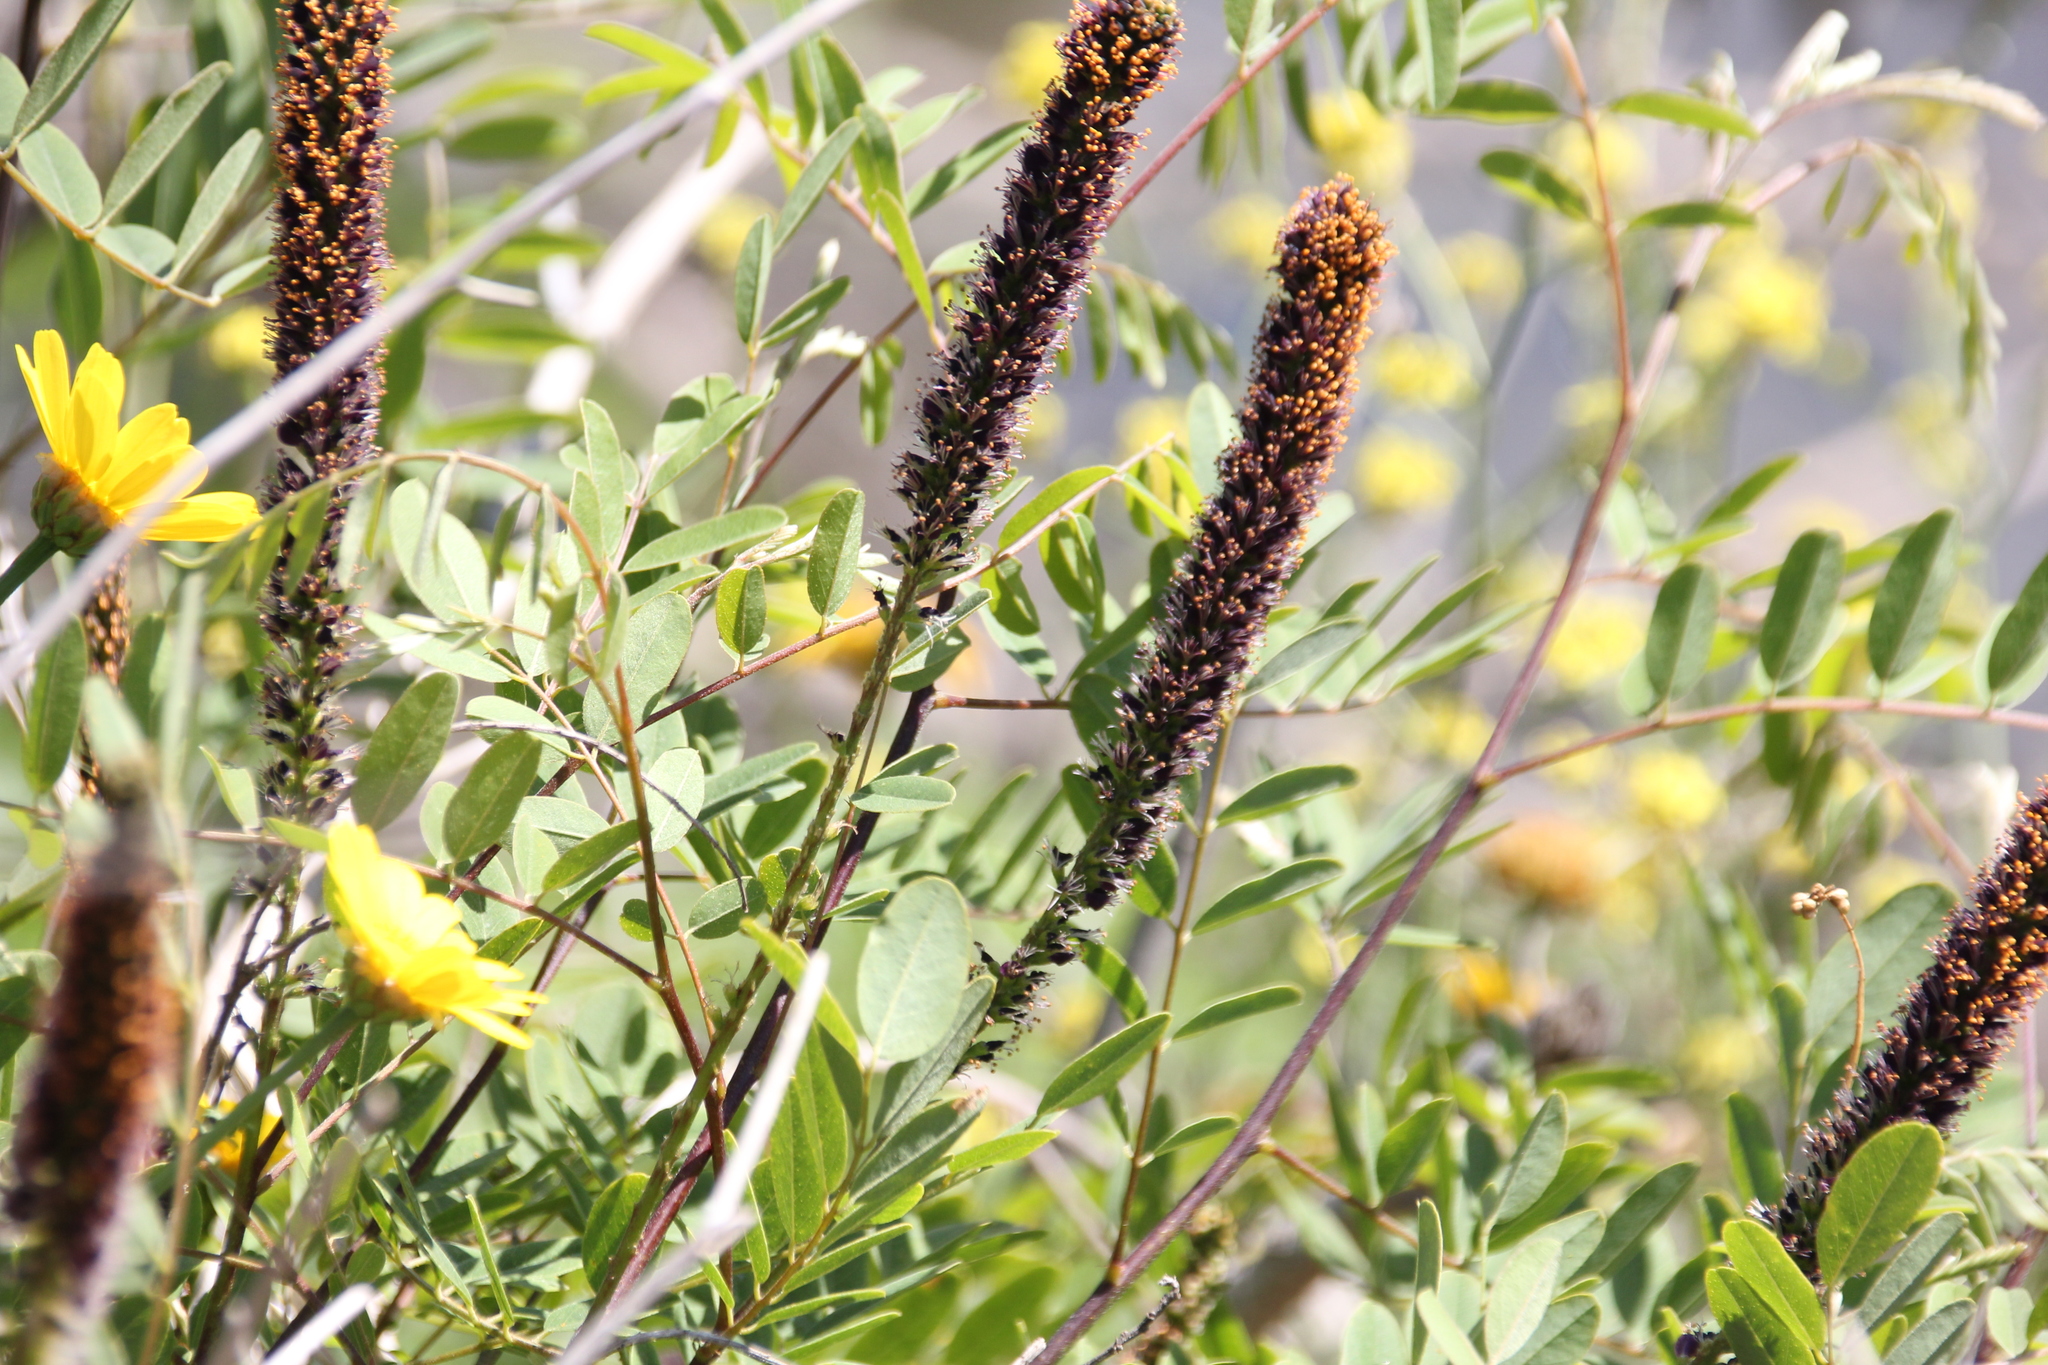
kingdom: Plantae
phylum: Tracheophyta
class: Magnoliopsida
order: Fabales
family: Fabaceae
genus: Amorpha
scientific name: Amorpha fruticosa
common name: False indigo
